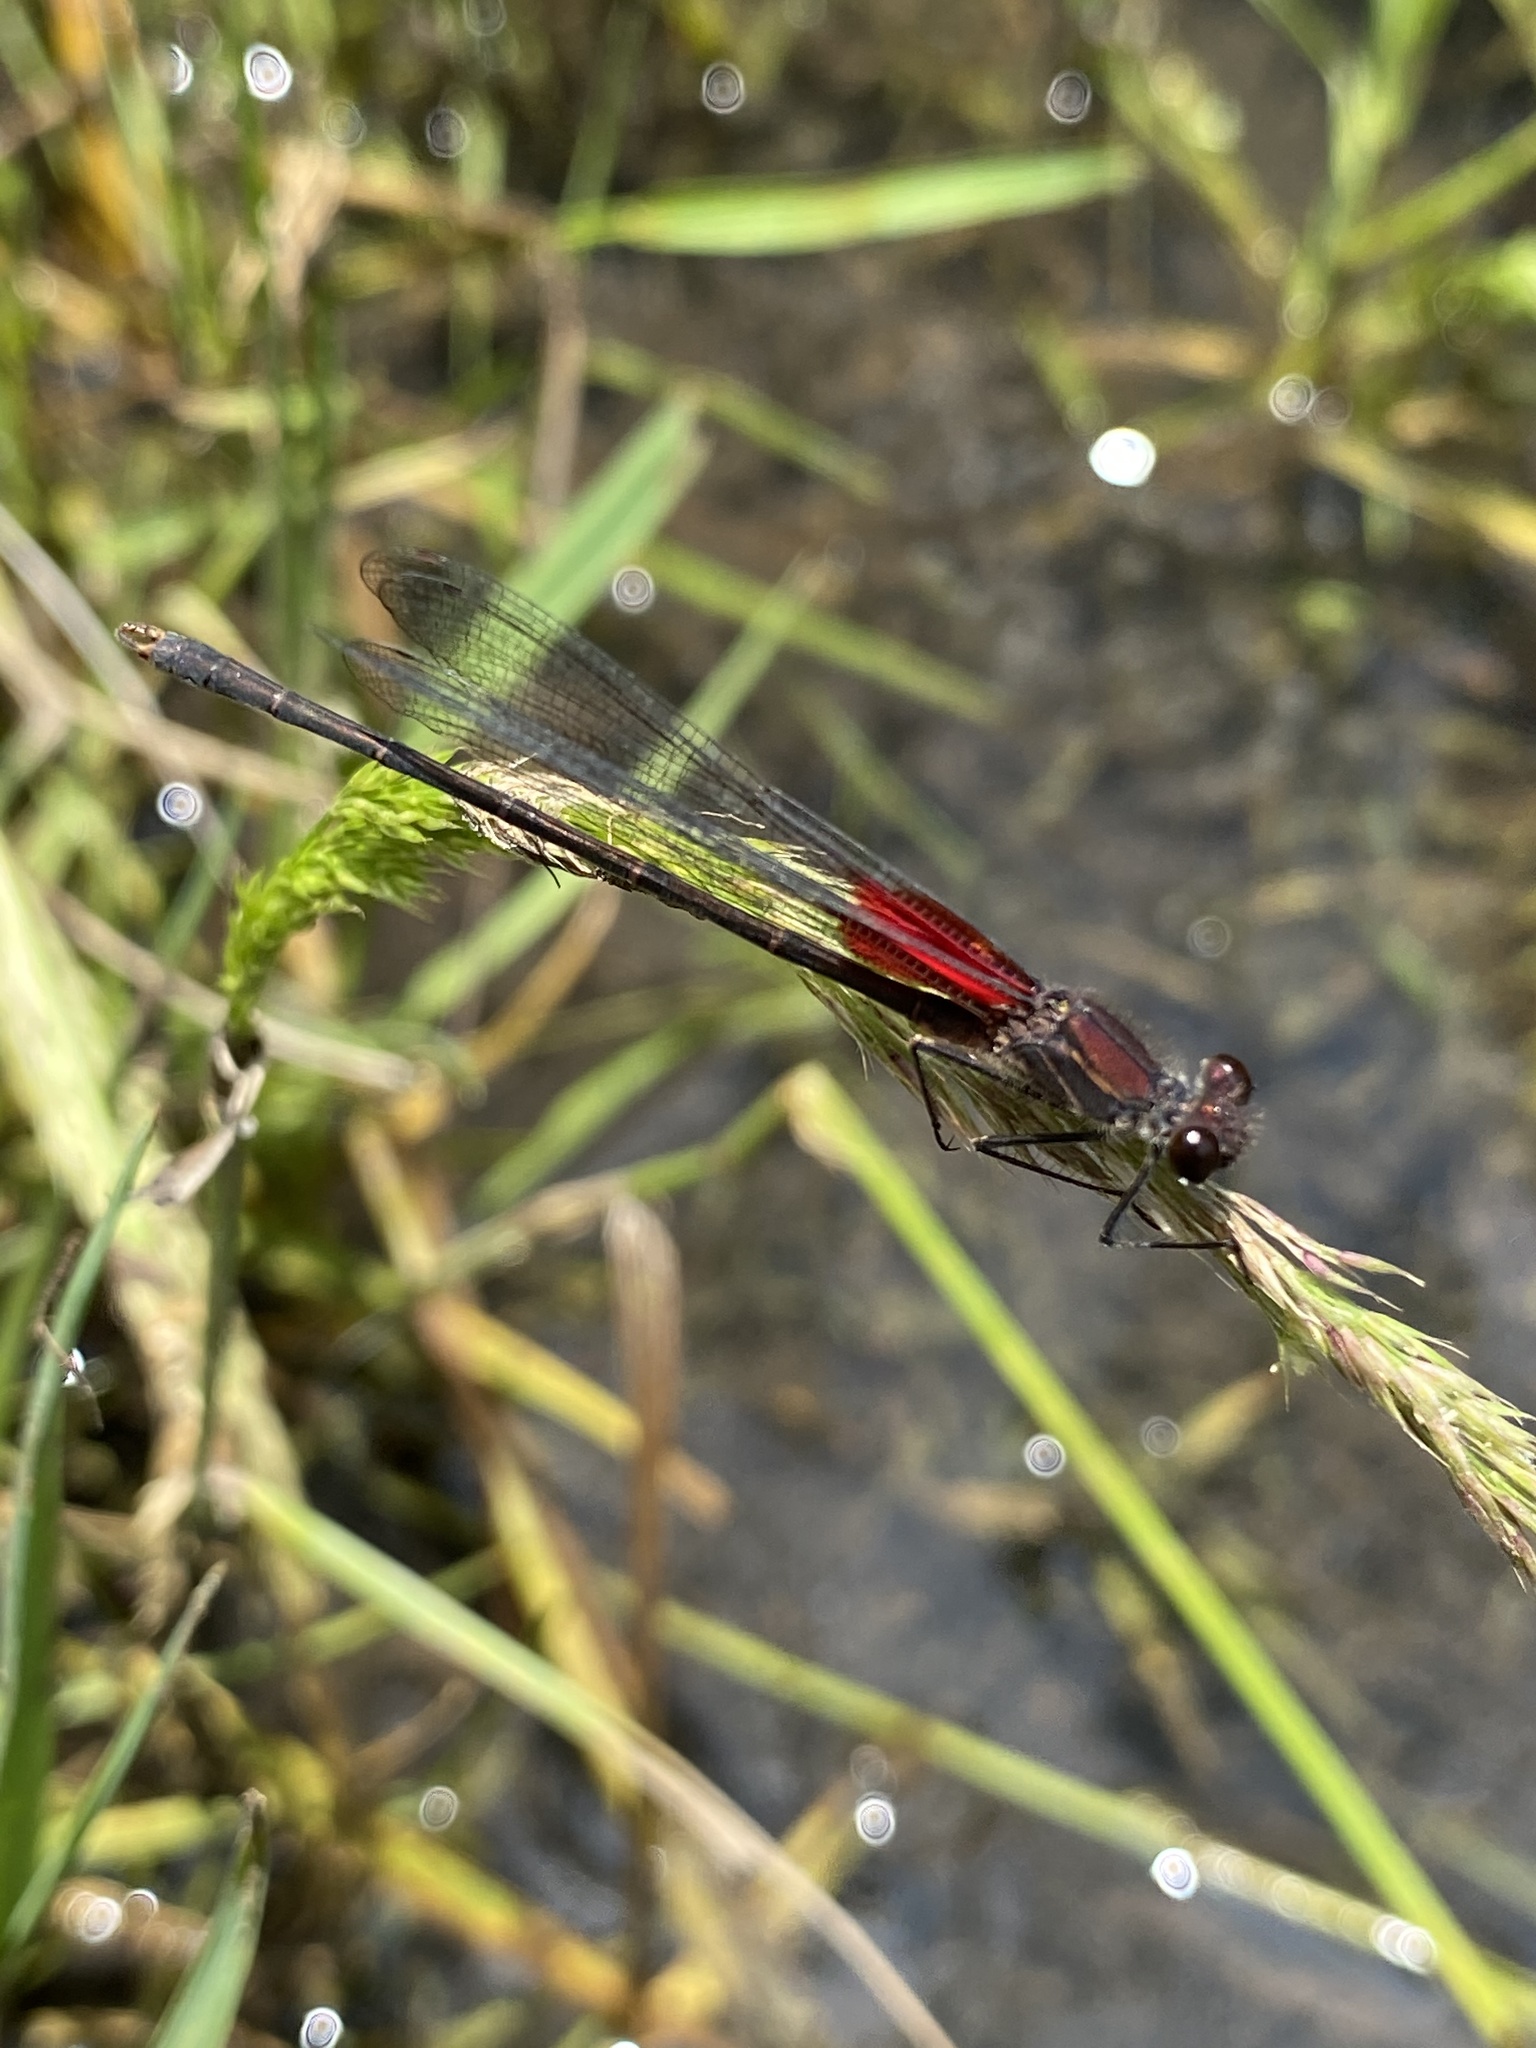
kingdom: Animalia
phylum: Arthropoda
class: Insecta
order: Odonata
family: Calopterygidae
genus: Hetaerina
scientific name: Hetaerina americana
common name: American rubyspot
